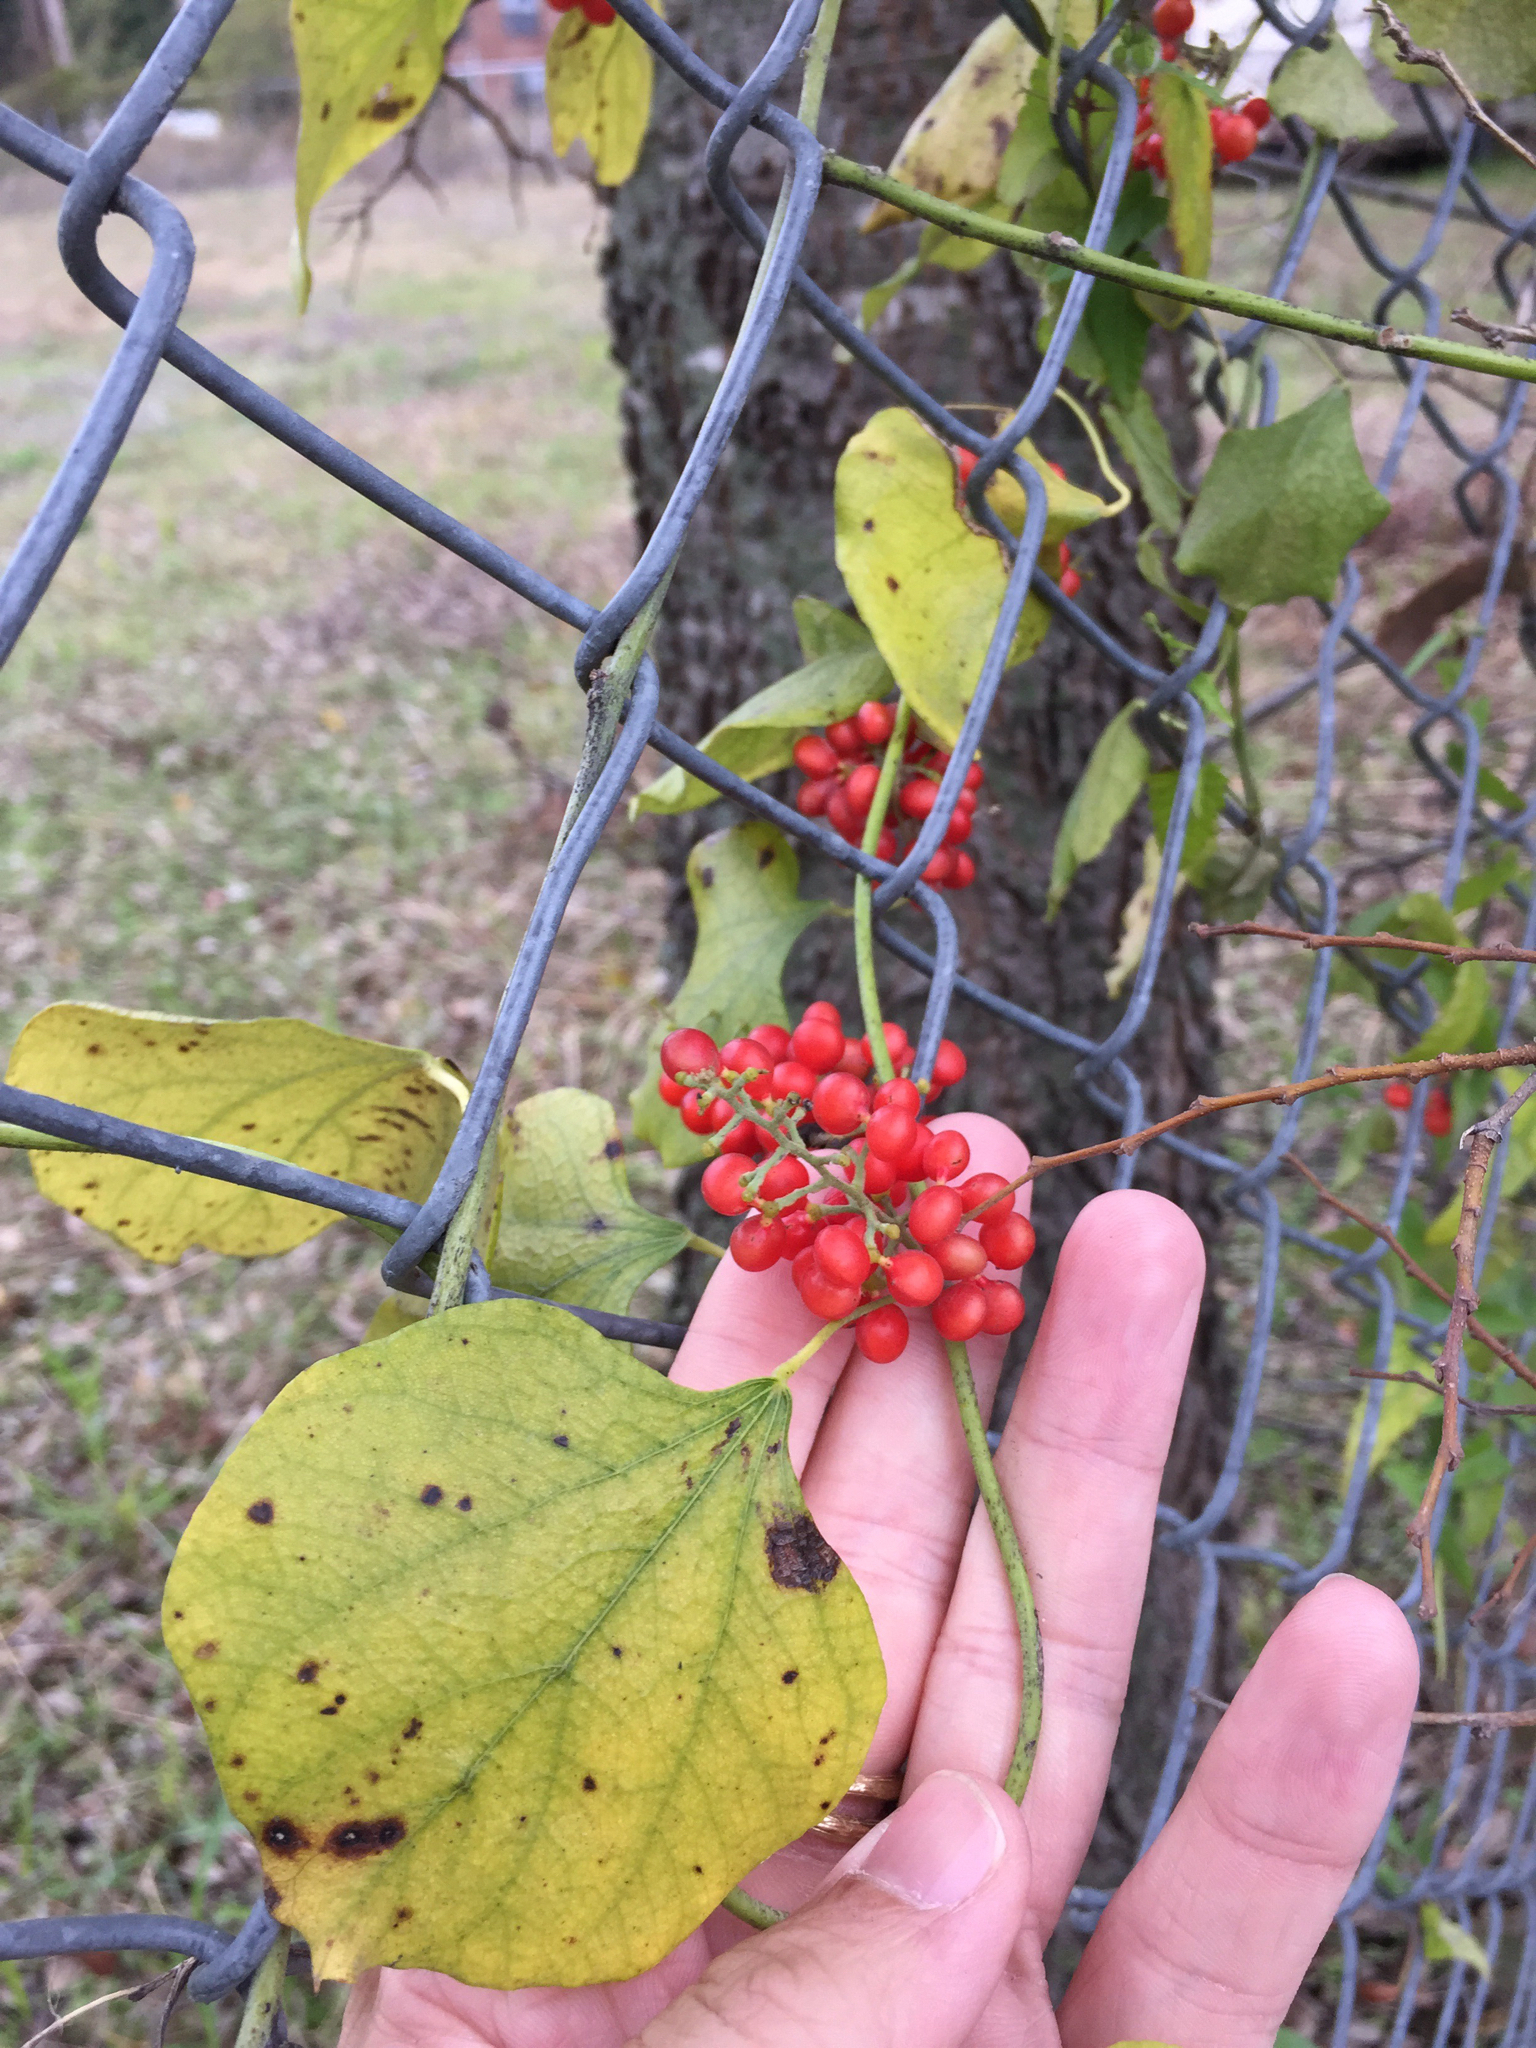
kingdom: Plantae
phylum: Tracheophyta
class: Magnoliopsida
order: Ranunculales
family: Menispermaceae
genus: Cocculus
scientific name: Cocculus carolinus
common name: Carolina moonseed
